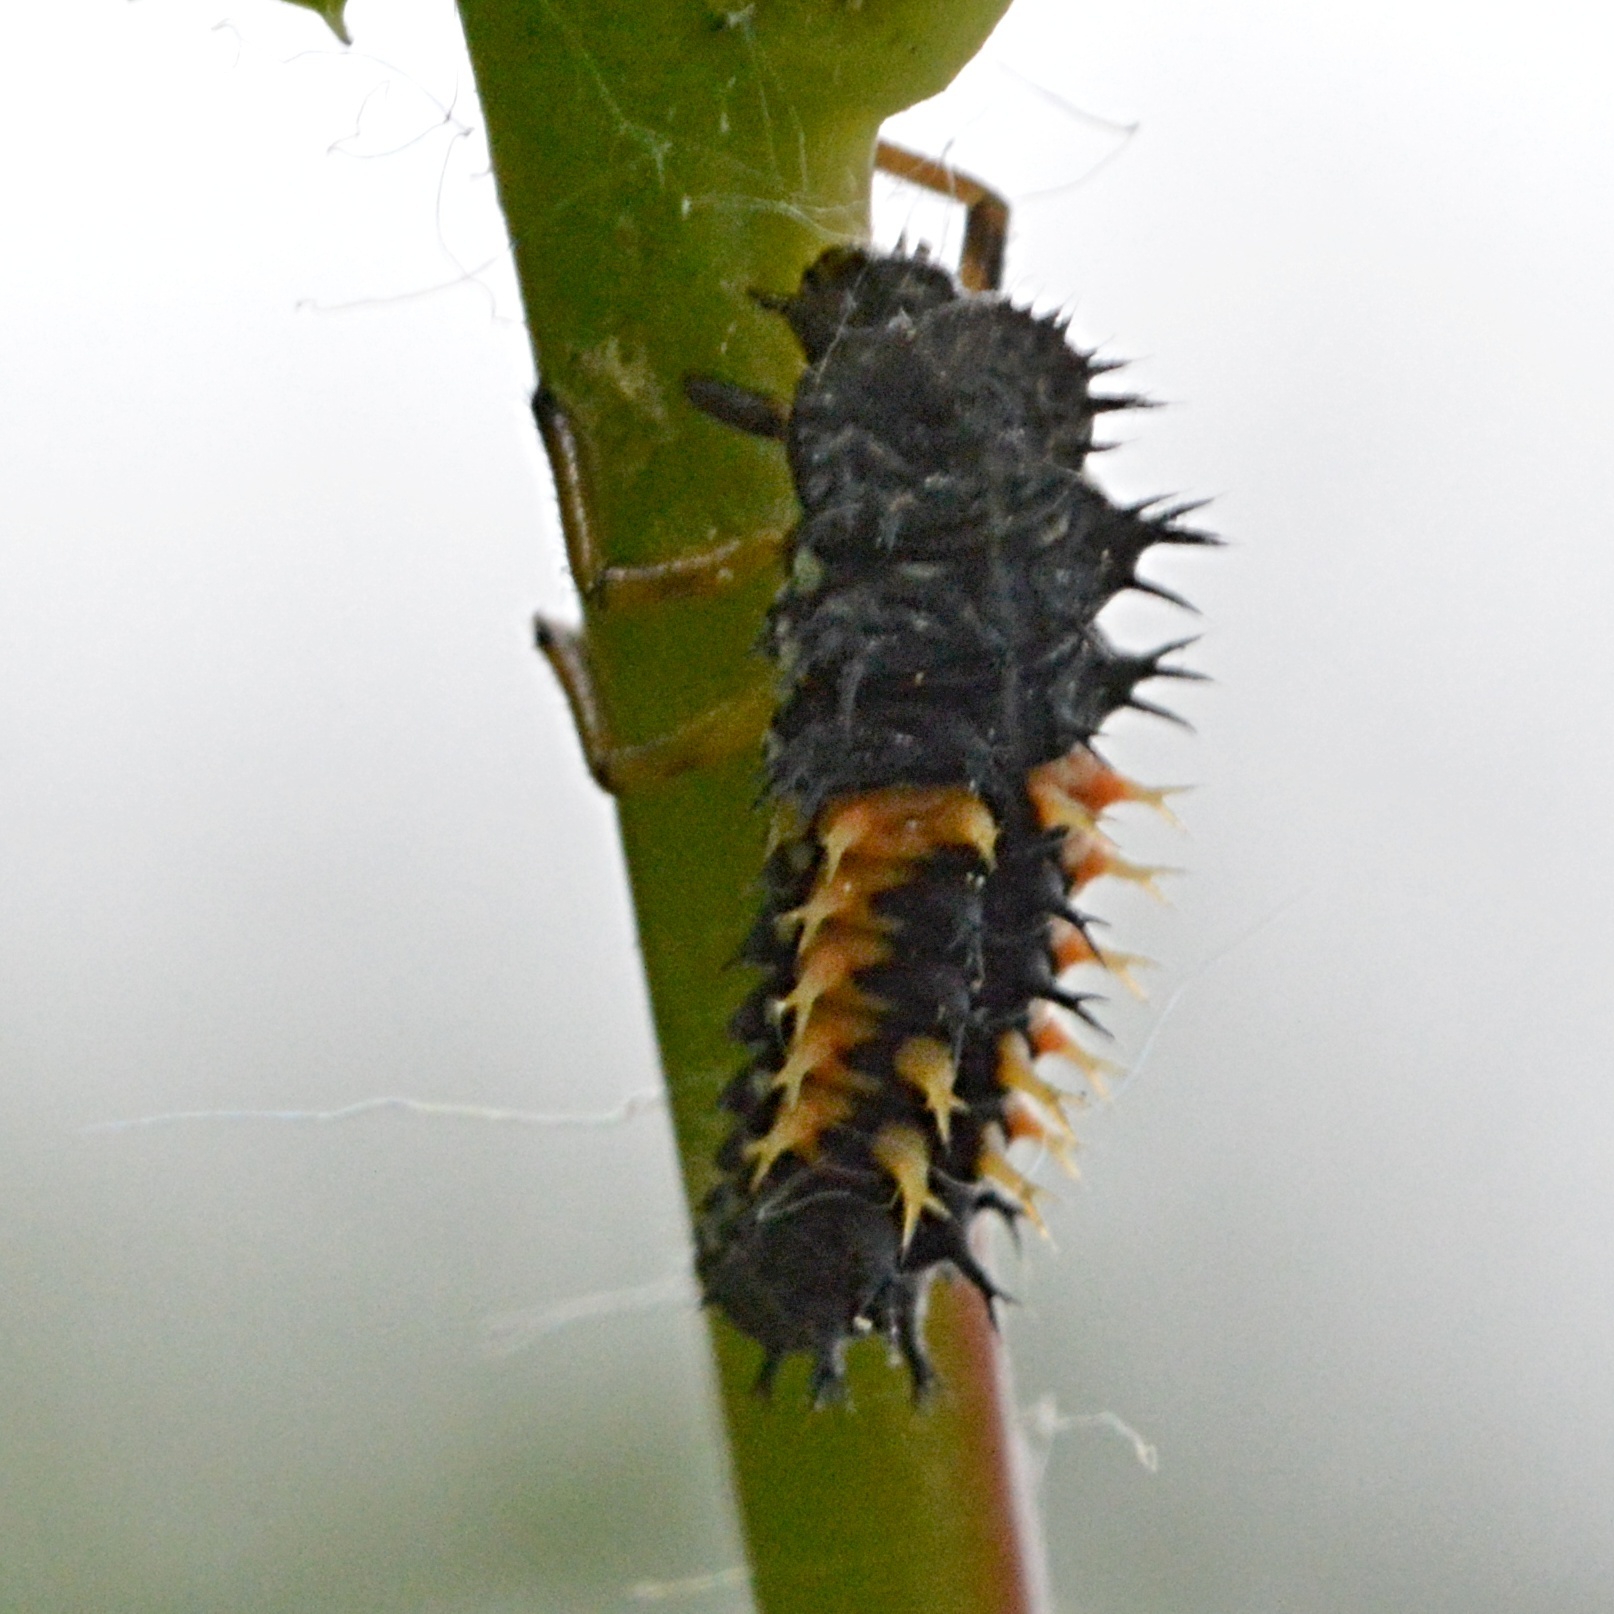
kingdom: Animalia
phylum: Arthropoda
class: Insecta
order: Coleoptera
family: Coccinellidae
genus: Harmonia
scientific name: Harmonia axyridis
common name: Harlequin ladybird
